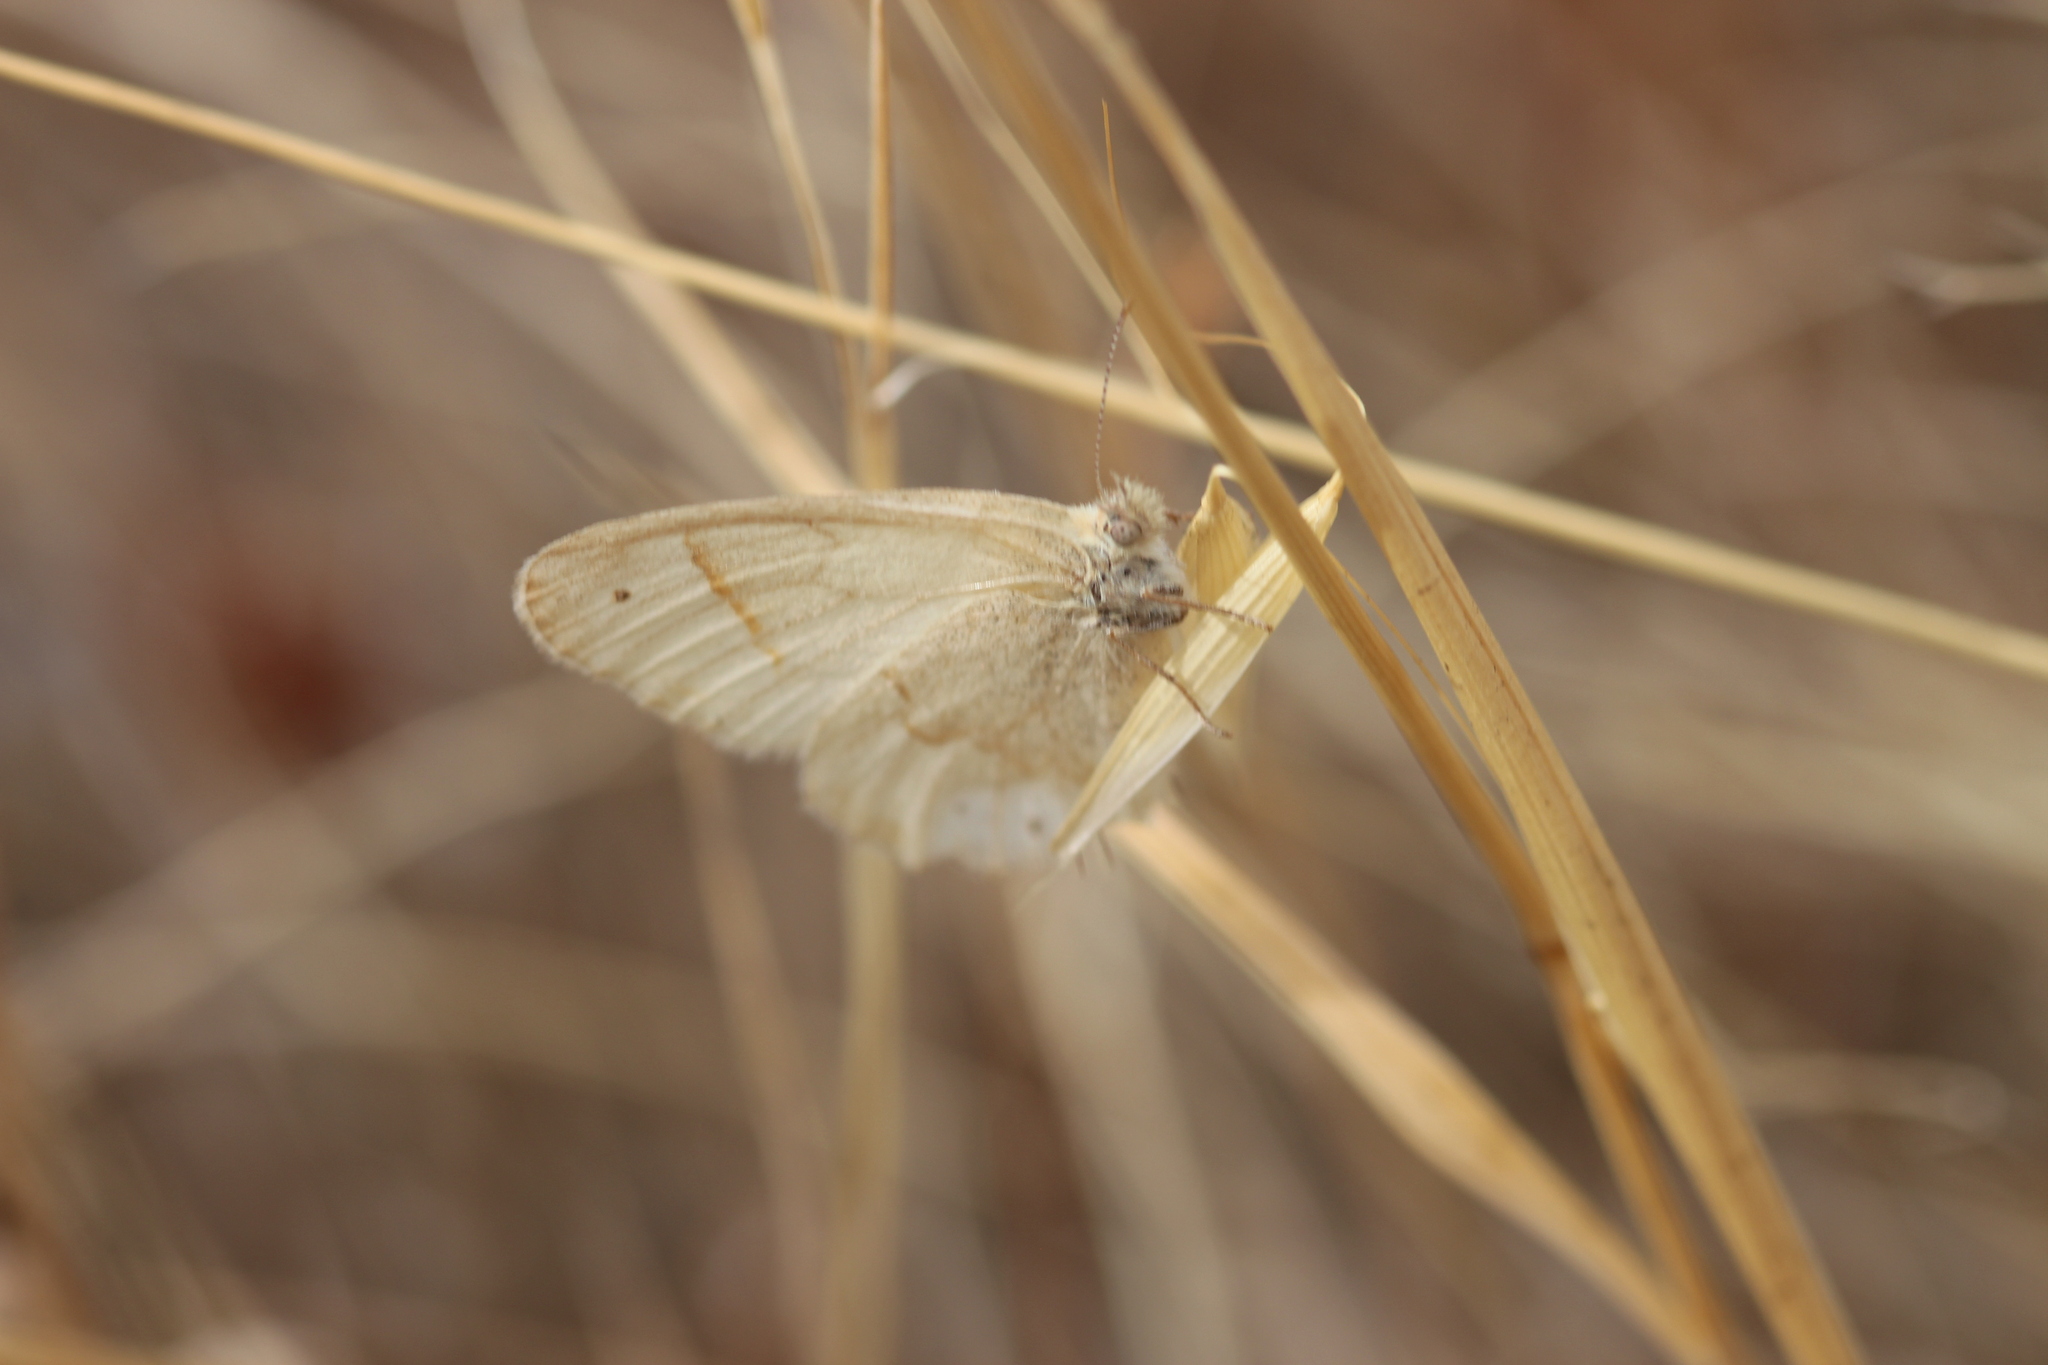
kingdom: Animalia
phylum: Arthropoda
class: Insecta
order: Lepidoptera
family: Nymphalidae
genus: Coenonympha
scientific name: Coenonympha california
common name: Common ringlet
